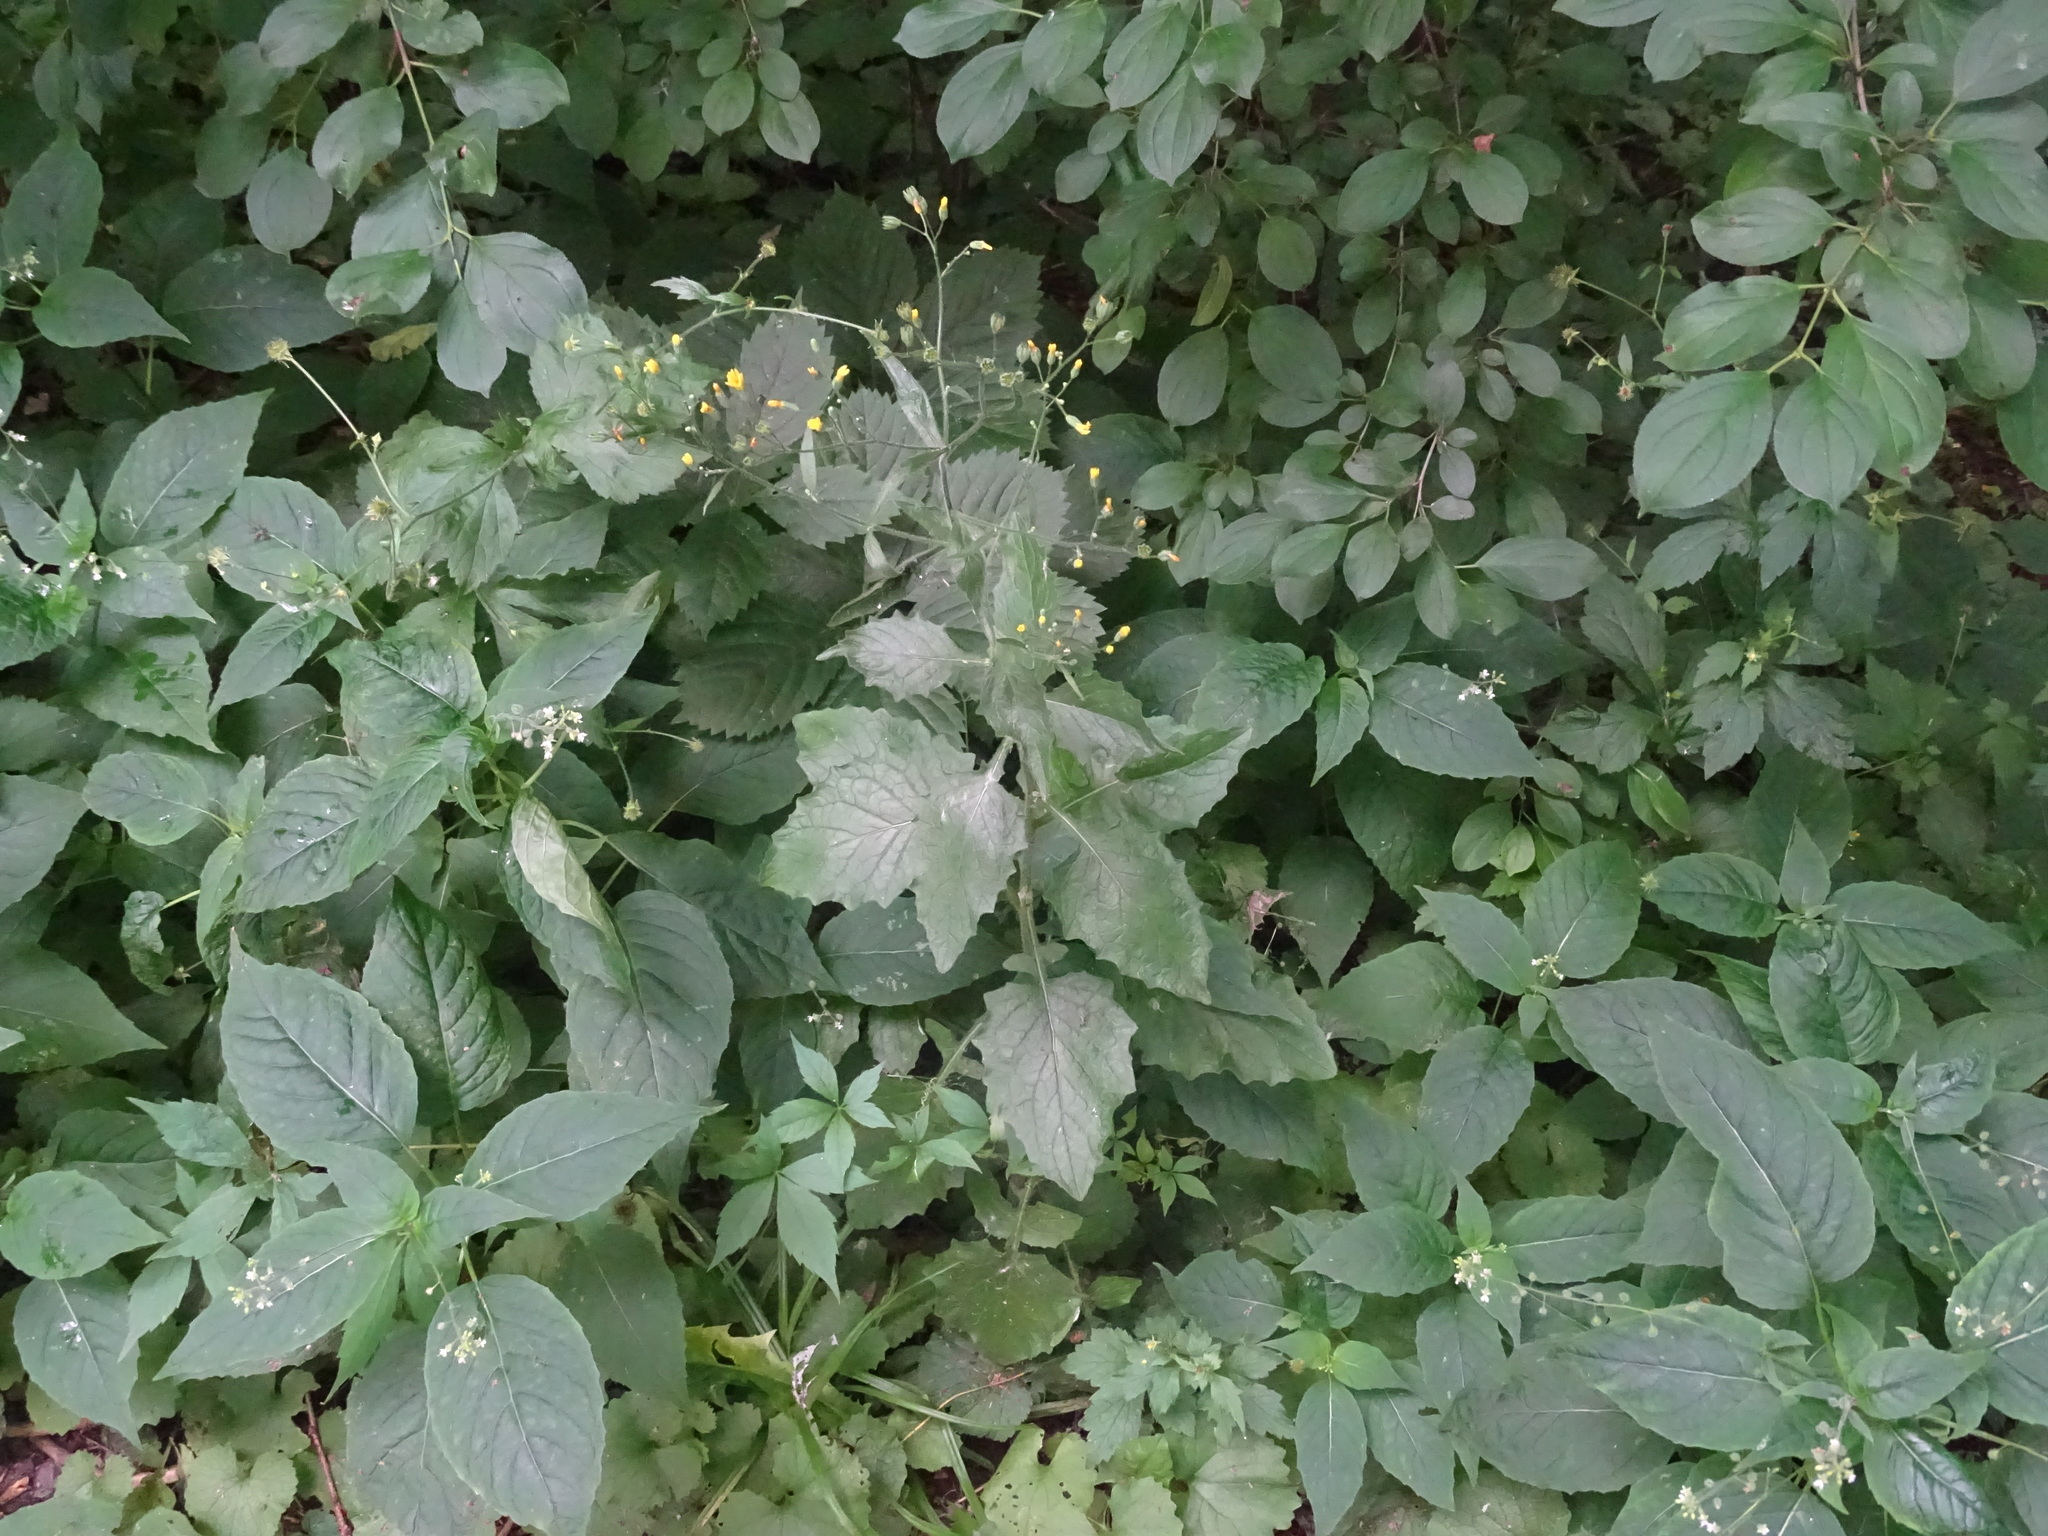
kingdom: Plantae
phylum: Tracheophyta
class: Magnoliopsida
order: Asterales
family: Asteraceae
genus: Lapsana
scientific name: Lapsana communis
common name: Nipplewort
